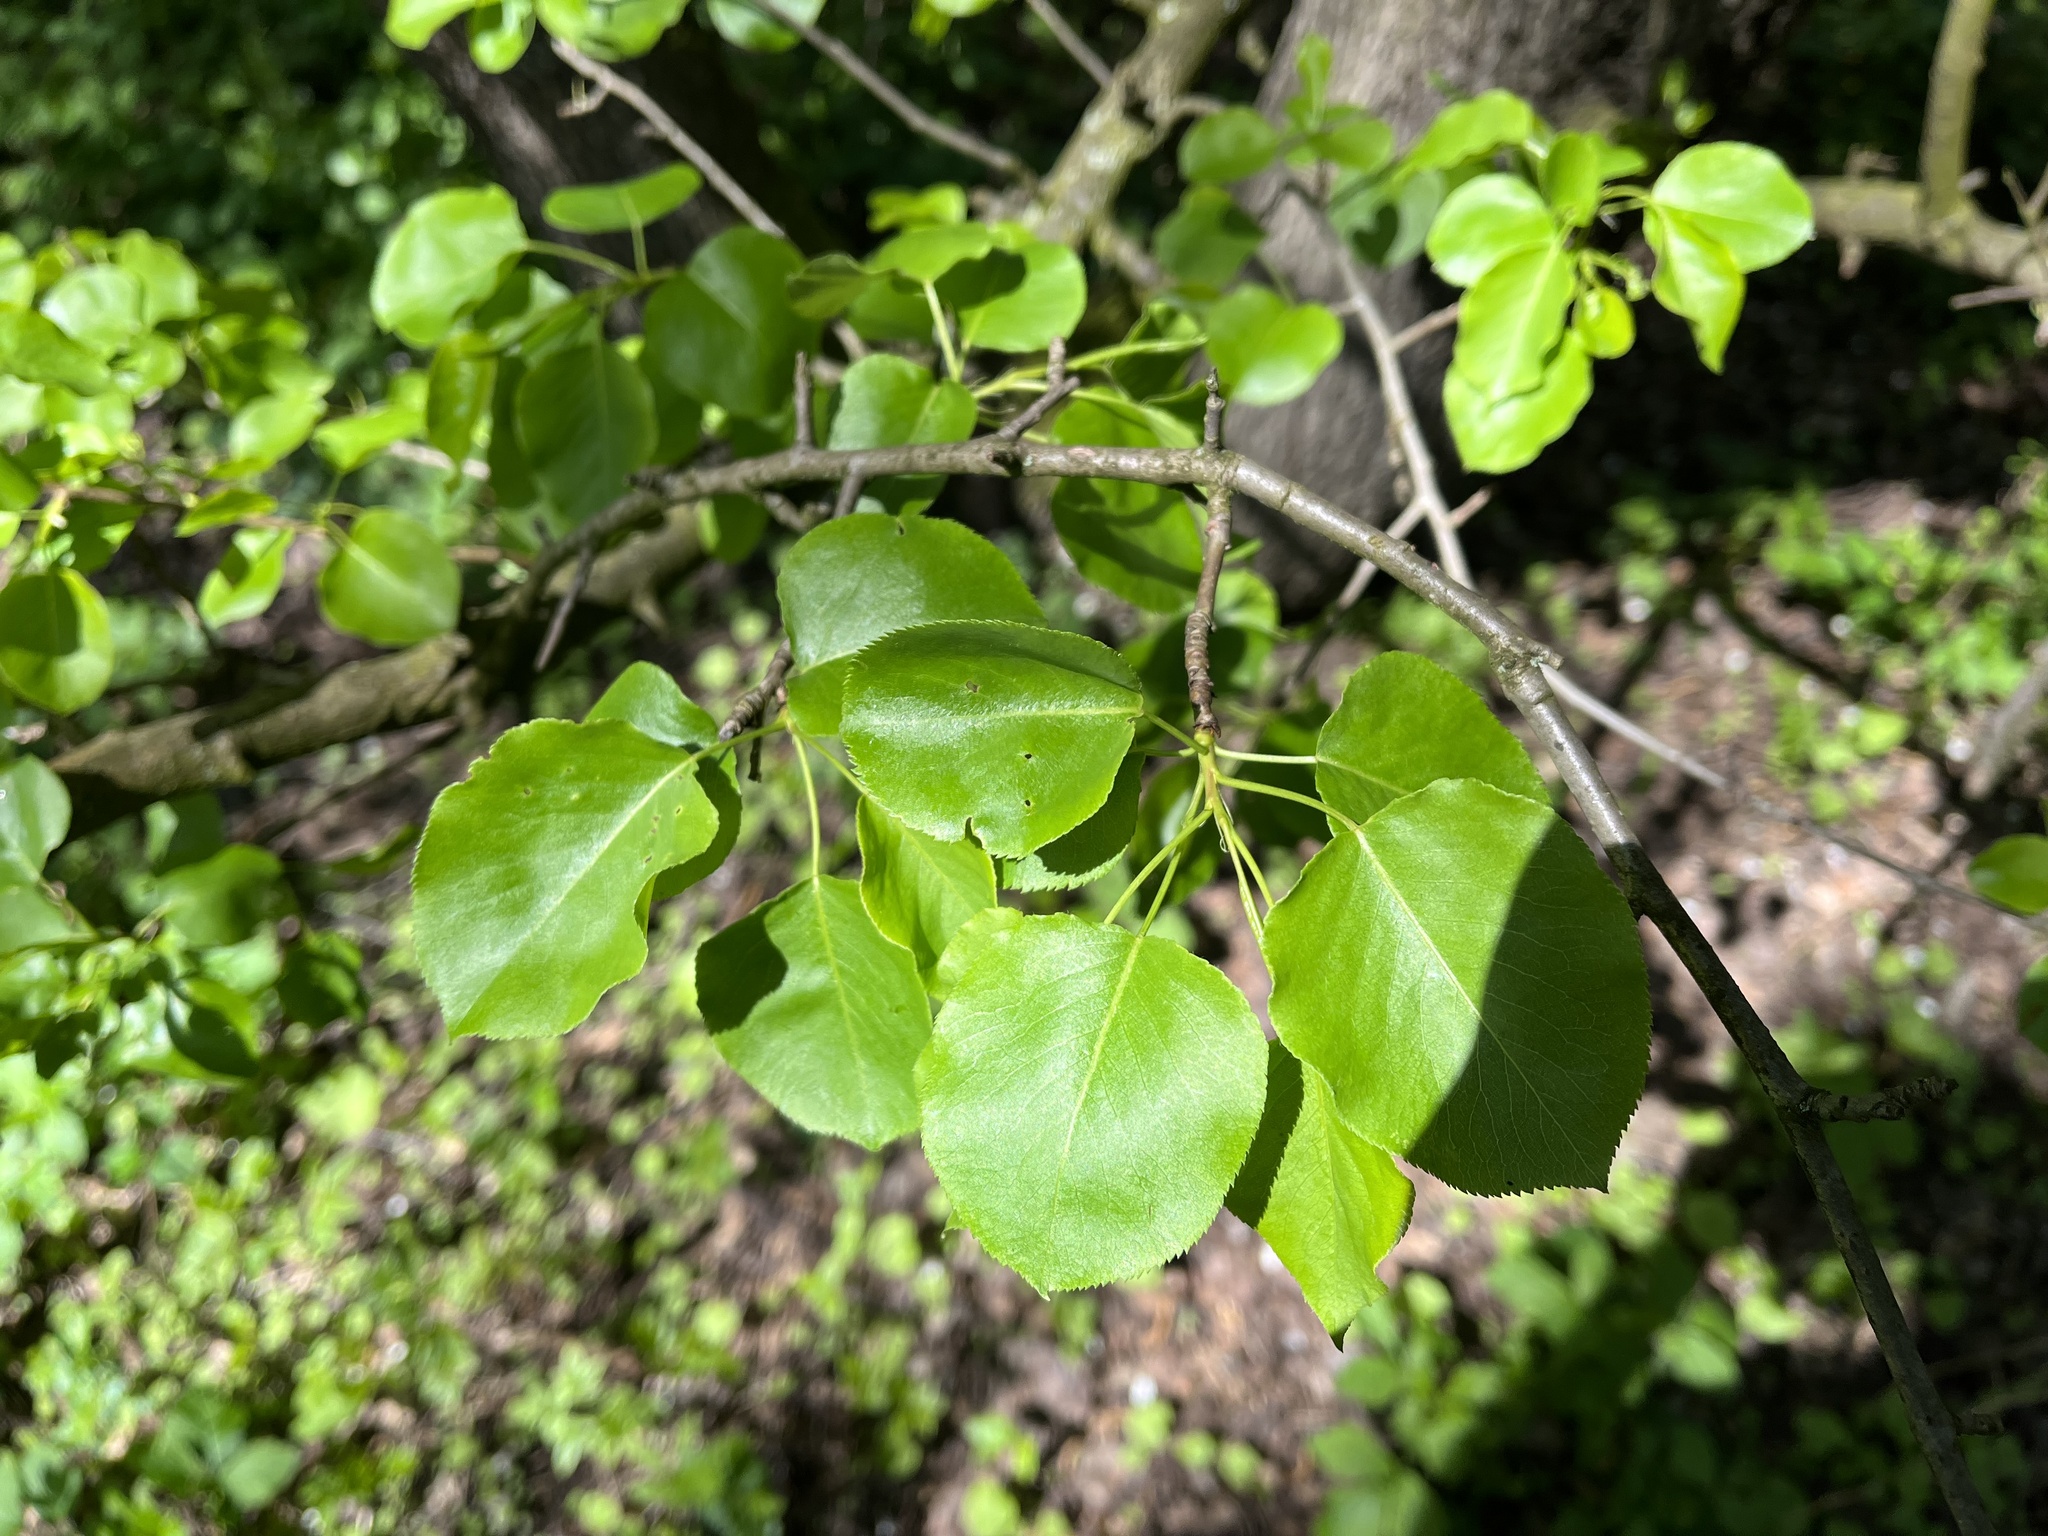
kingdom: Plantae
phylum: Tracheophyta
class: Magnoliopsida
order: Rosales
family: Rosaceae
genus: Prunus
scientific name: Prunus mahaleb
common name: Mahaleb cherry
